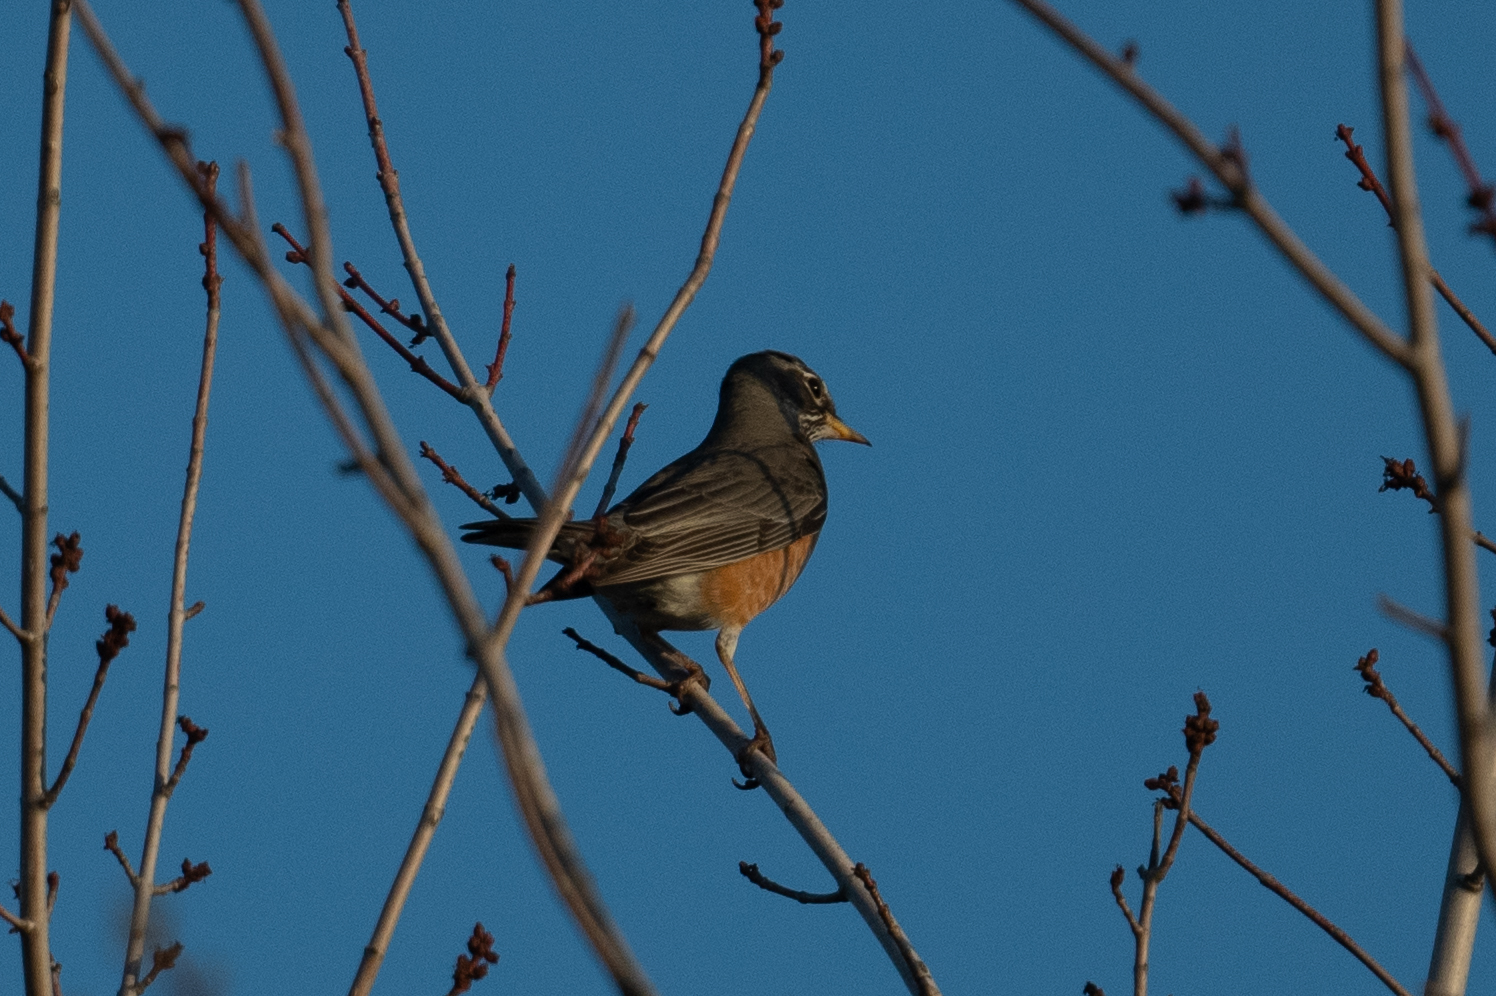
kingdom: Animalia
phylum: Chordata
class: Aves
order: Passeriformes
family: Turdidae
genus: Turdus
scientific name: Turdus migratorius
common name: American robin
